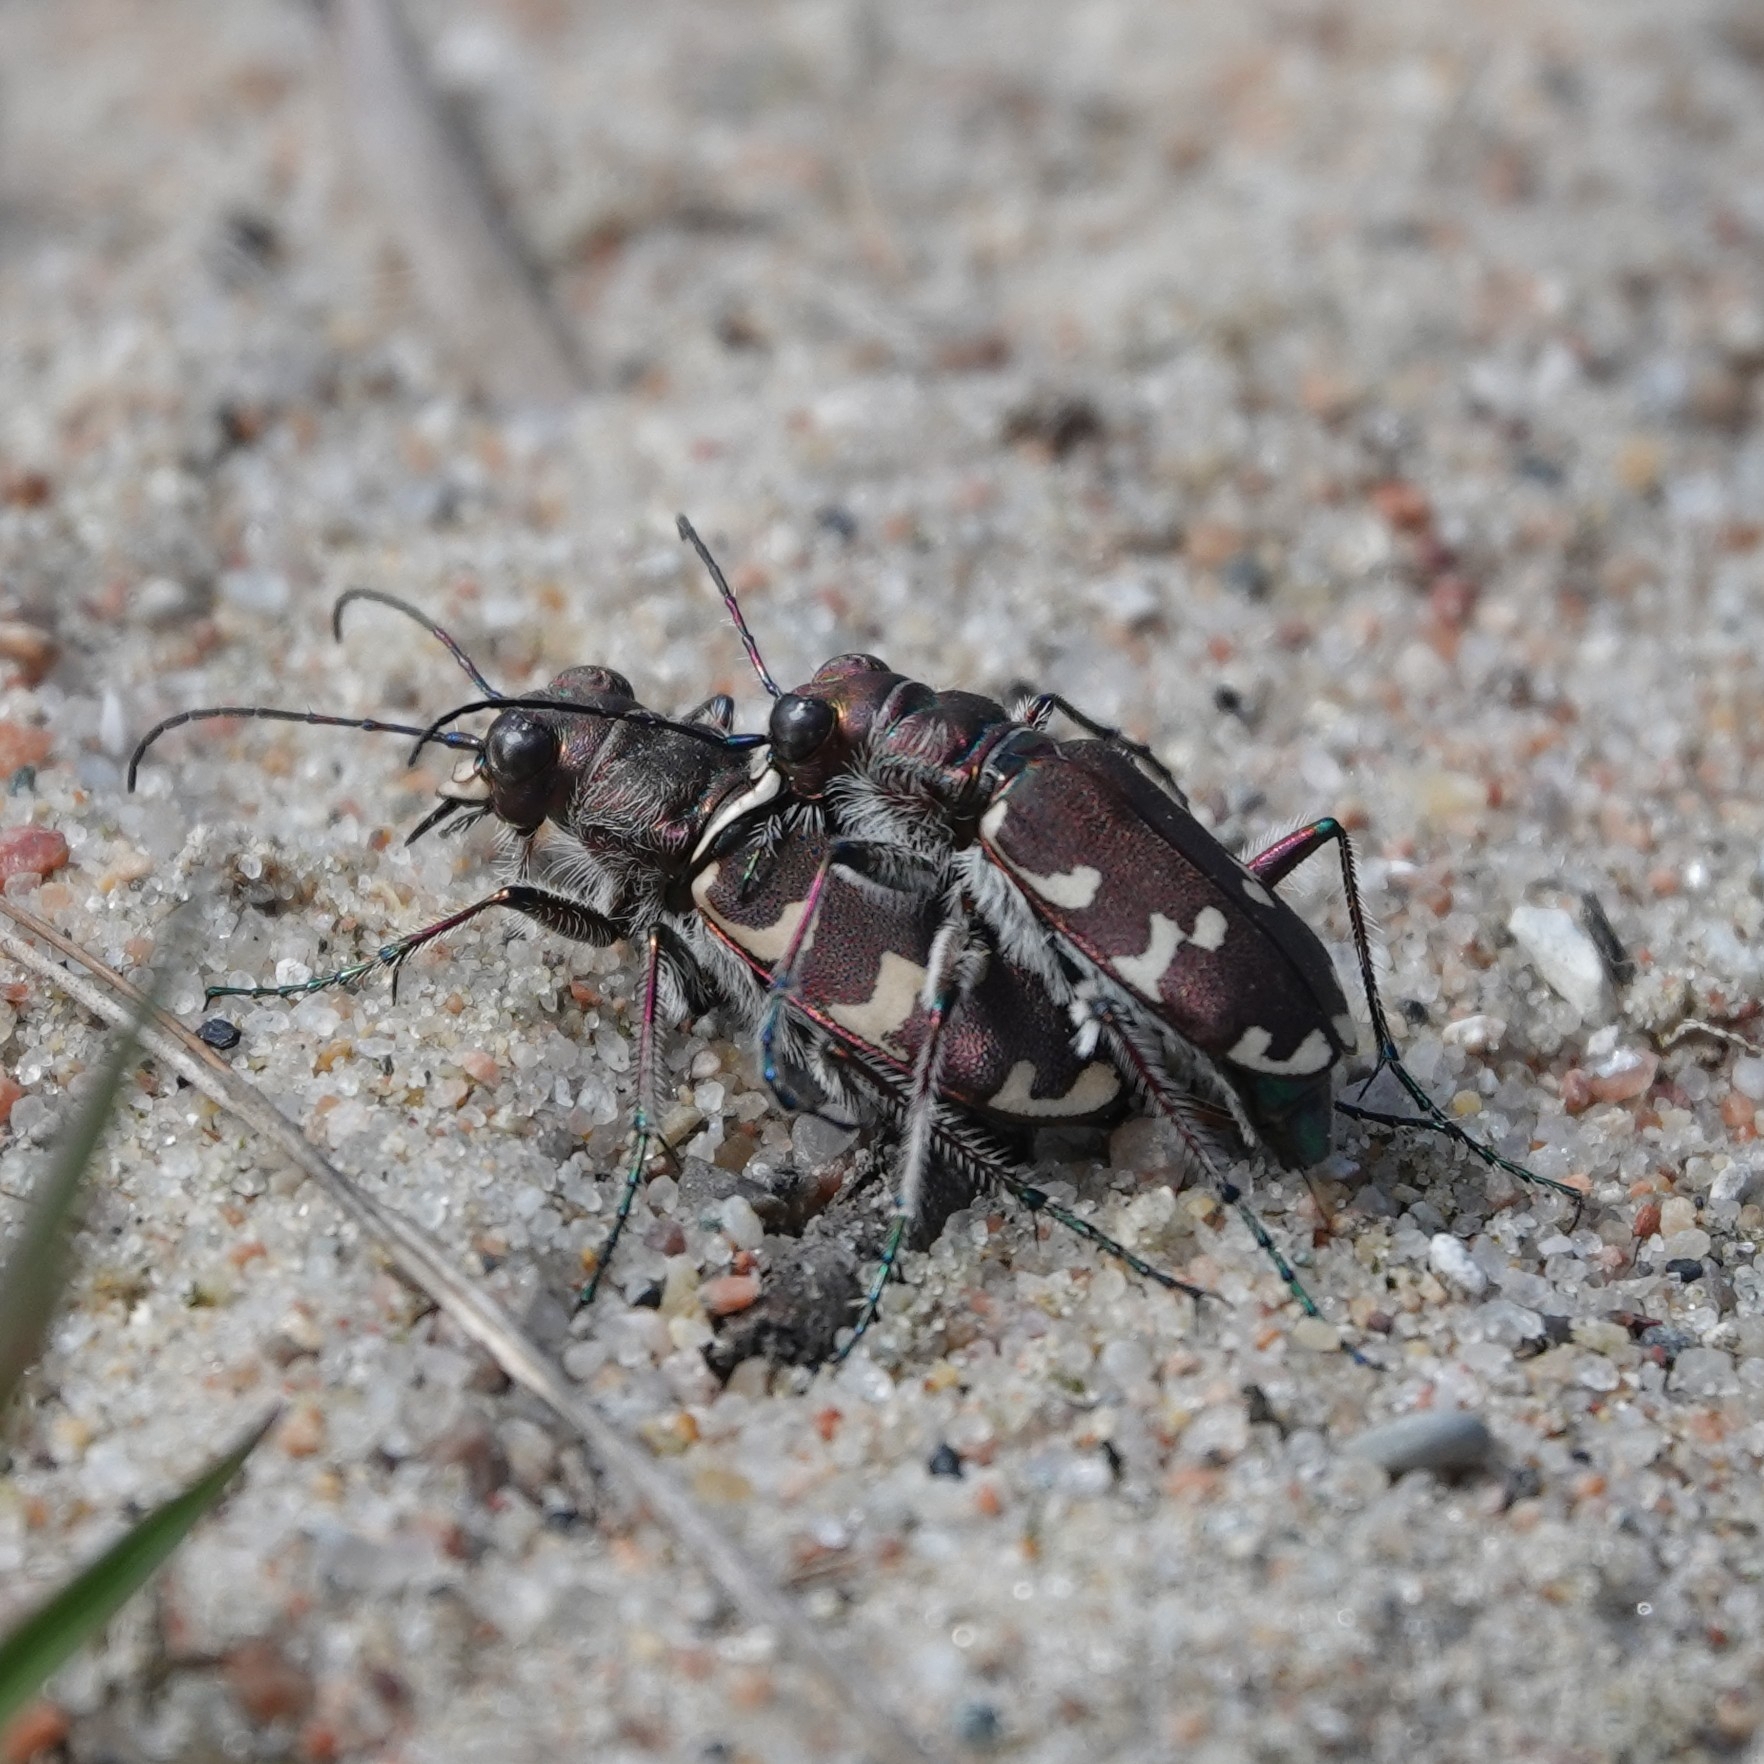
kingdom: Animalia
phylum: Arthropoda
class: Insecta
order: Coleoptera
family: Carabidae
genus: Cicindela
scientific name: Cicindela hybrida
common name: Northern dune tiger beetle
